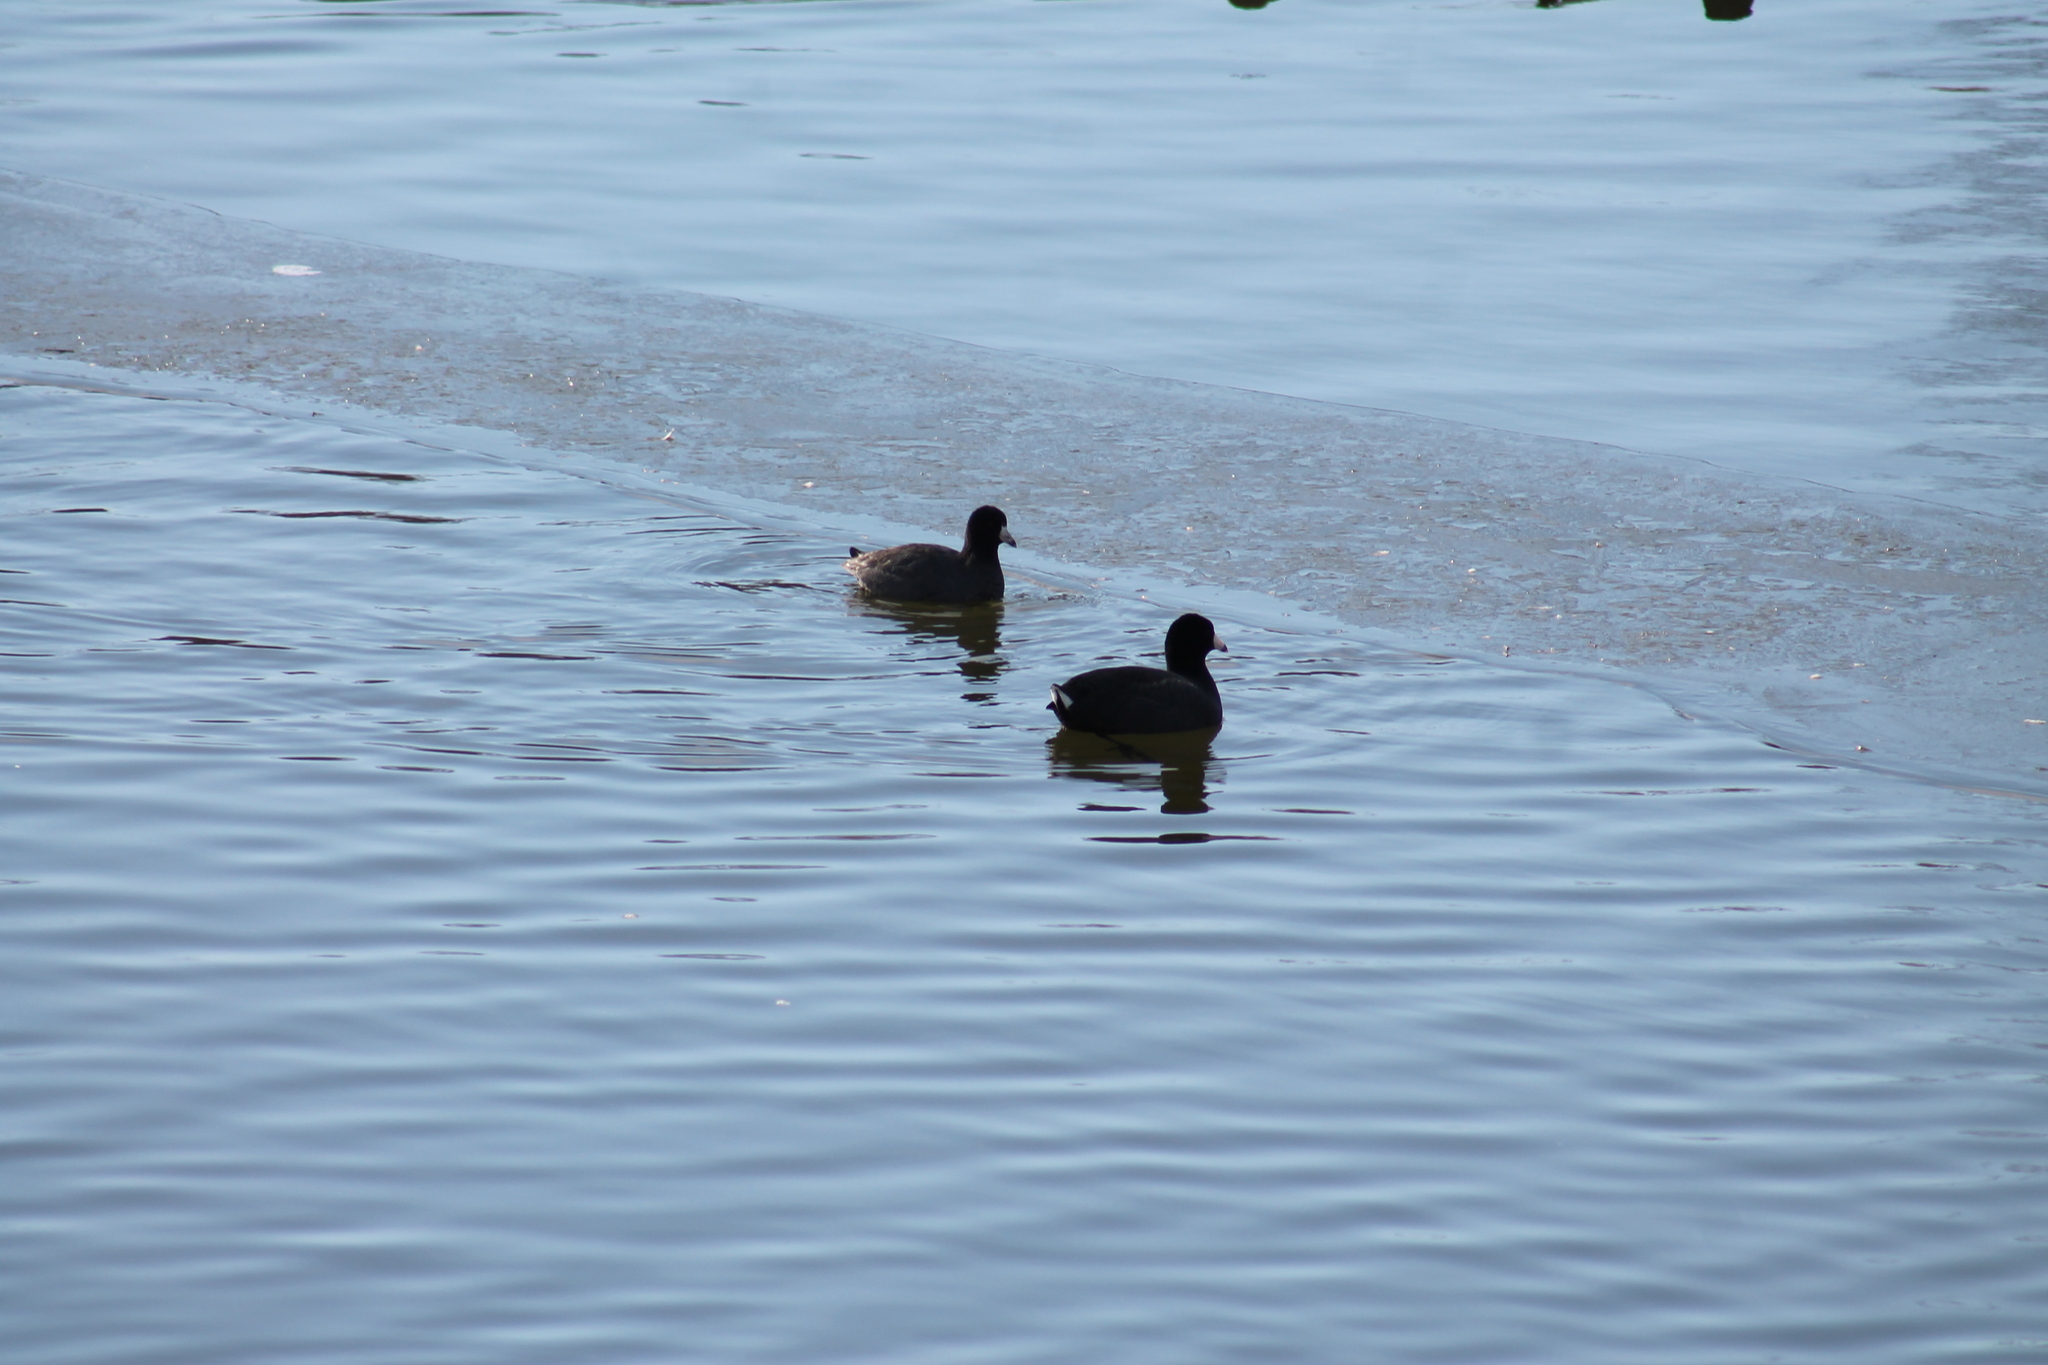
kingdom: Animalia
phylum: Chordata
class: Aves
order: Gruiformes
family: Rallidae
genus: Fulica
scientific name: Fulica americana
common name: American coot
